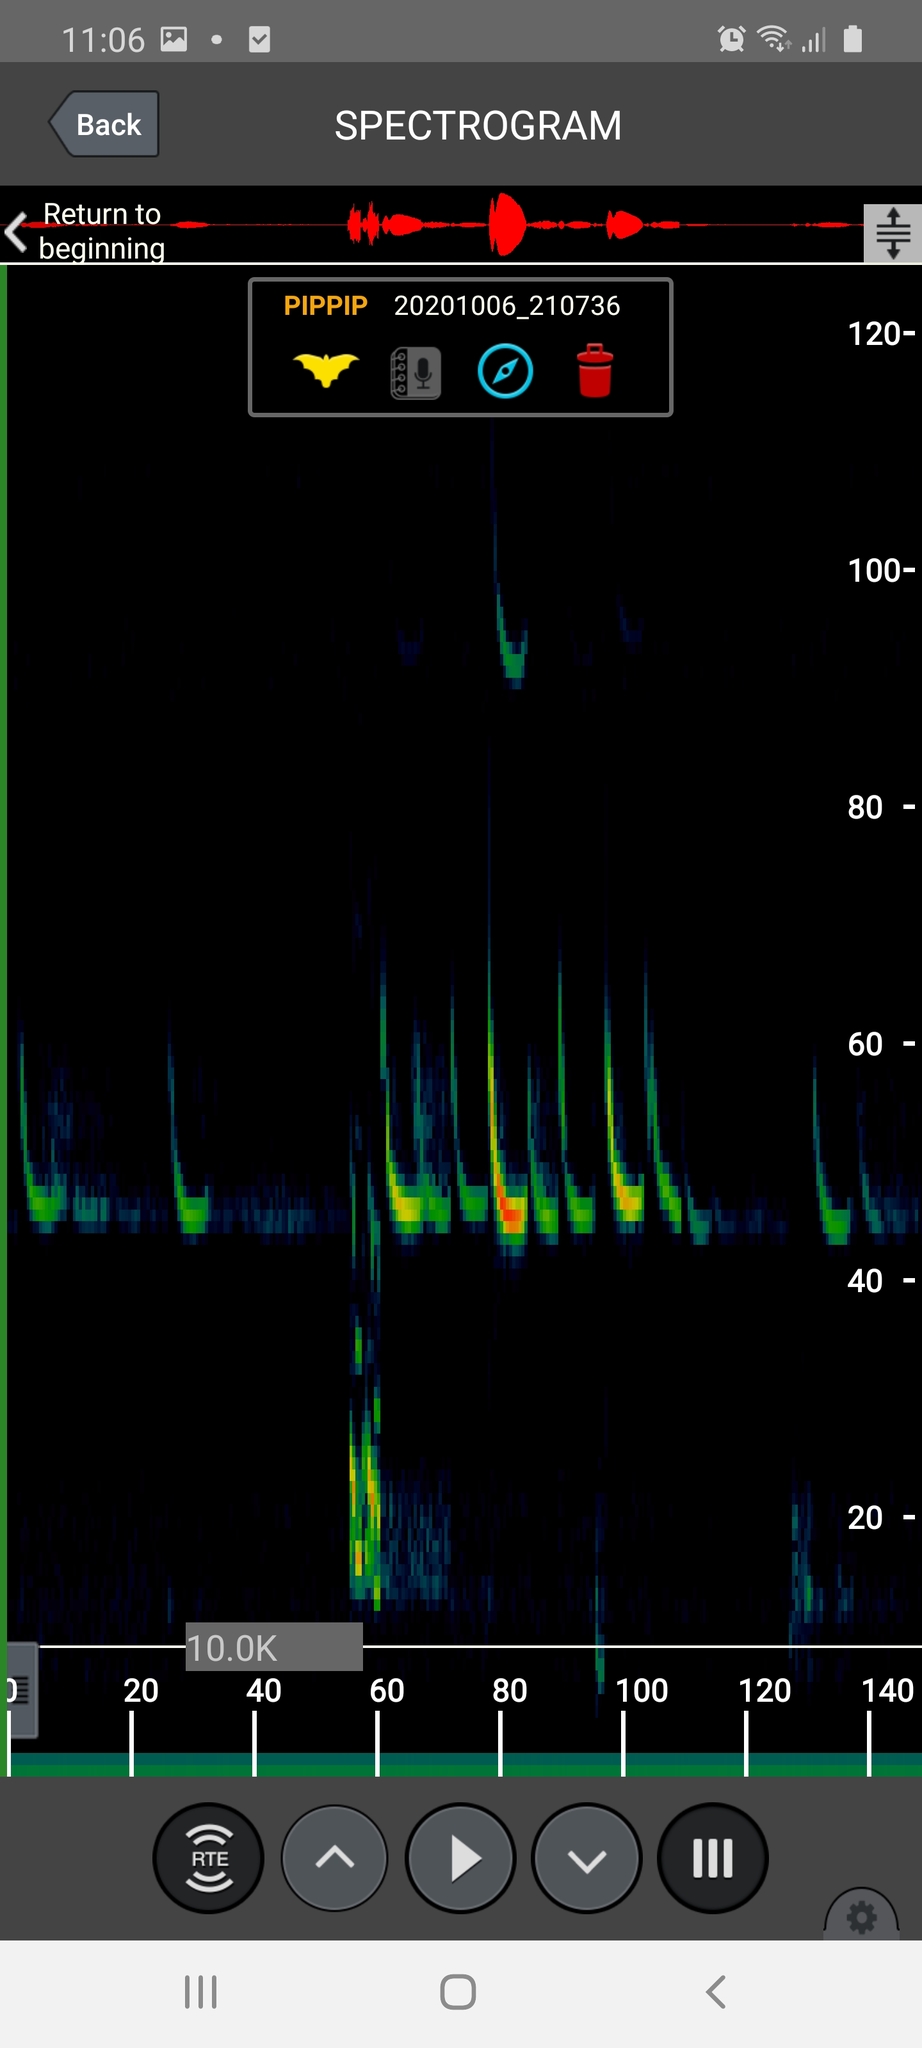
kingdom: Animalia
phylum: Chordata
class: Mammalia
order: Chiroptera
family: Vespertilionidae
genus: Pipistrellus
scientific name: Pipistrellus pipistrellus
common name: Common pipistrelle
